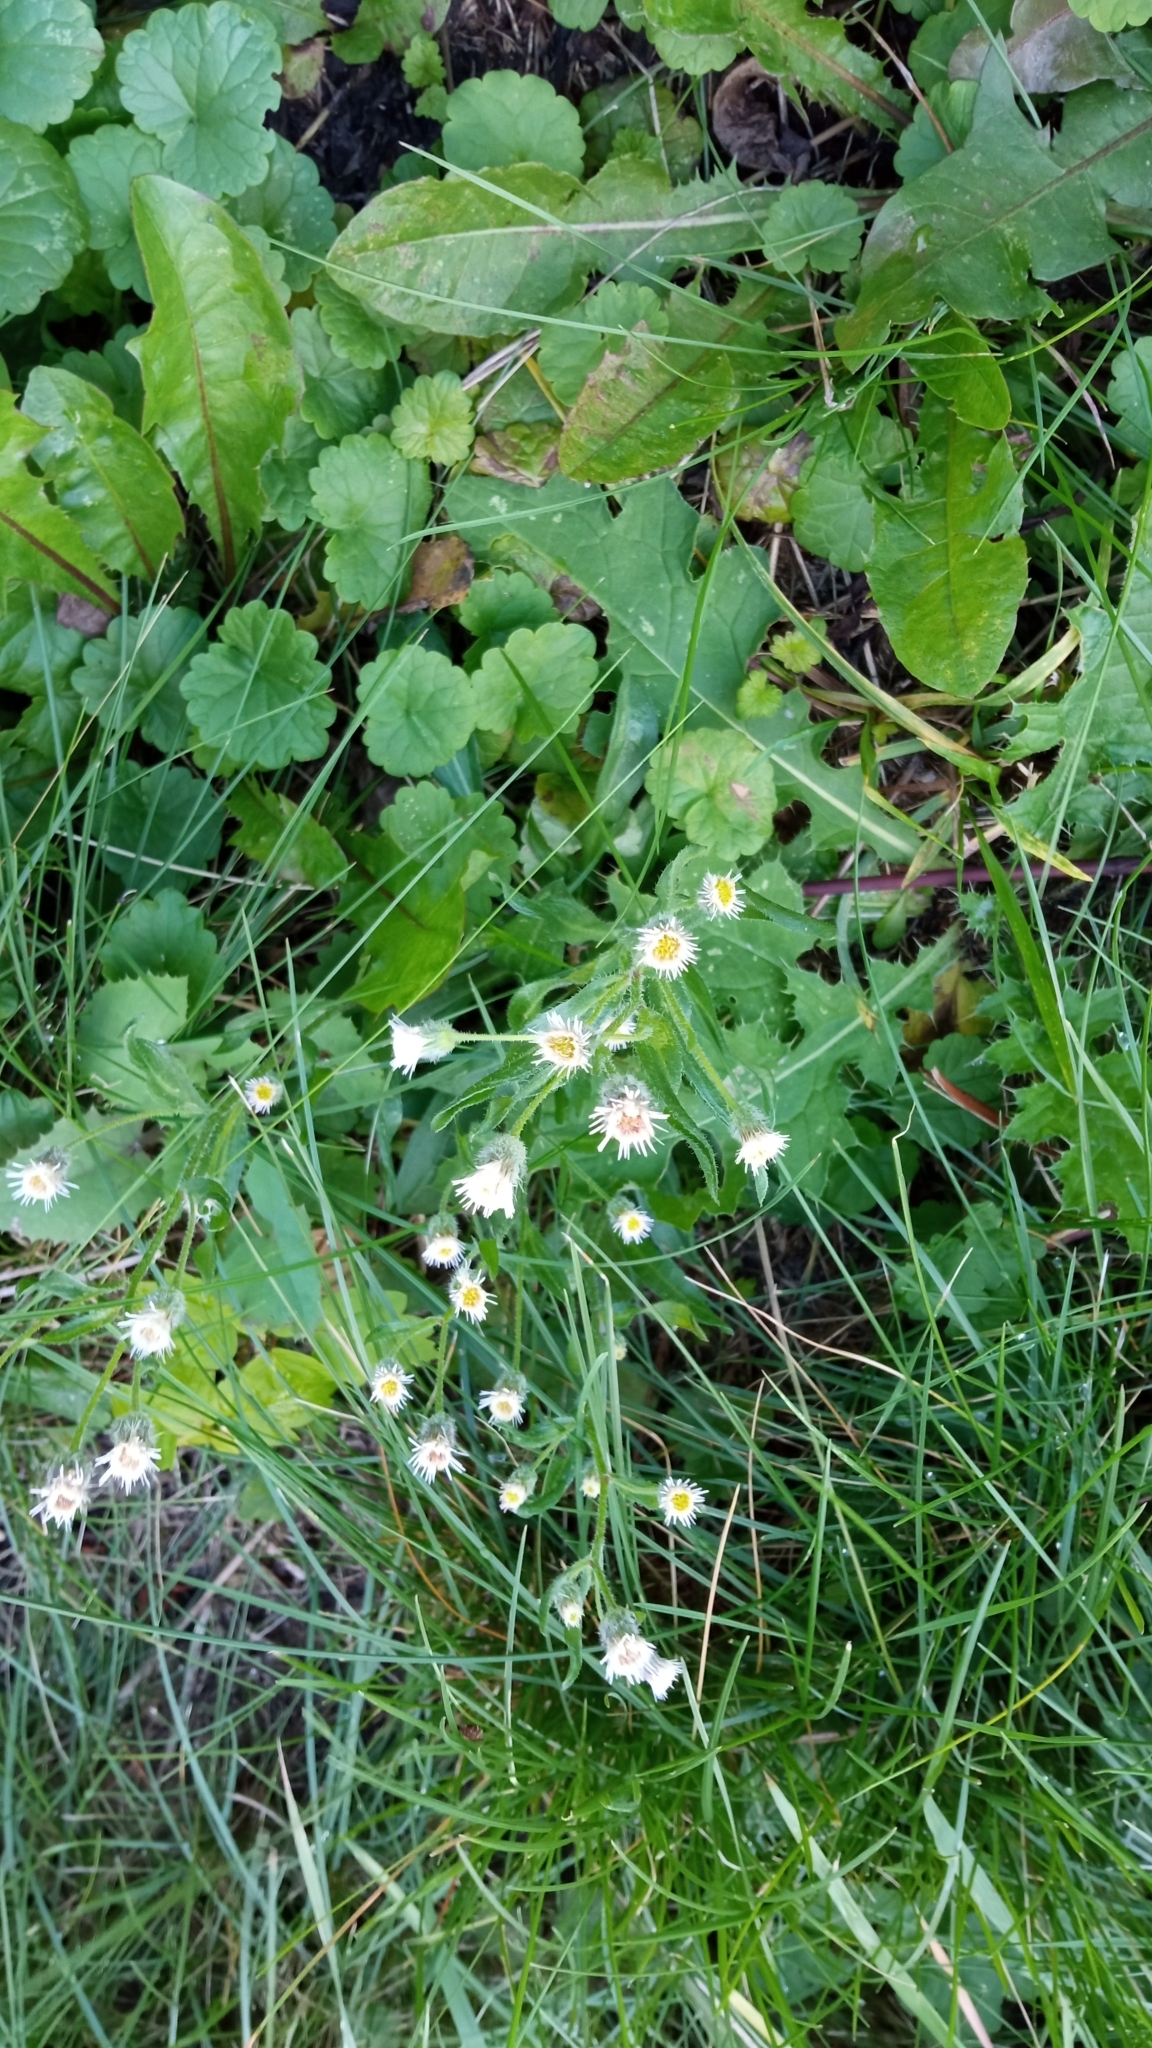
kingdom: Plantae
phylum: Tracheophyta
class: Magnoliopsida
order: Asterales
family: Asteraceae
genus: Erigeron
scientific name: Erigeron acris
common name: Blue fleabane
